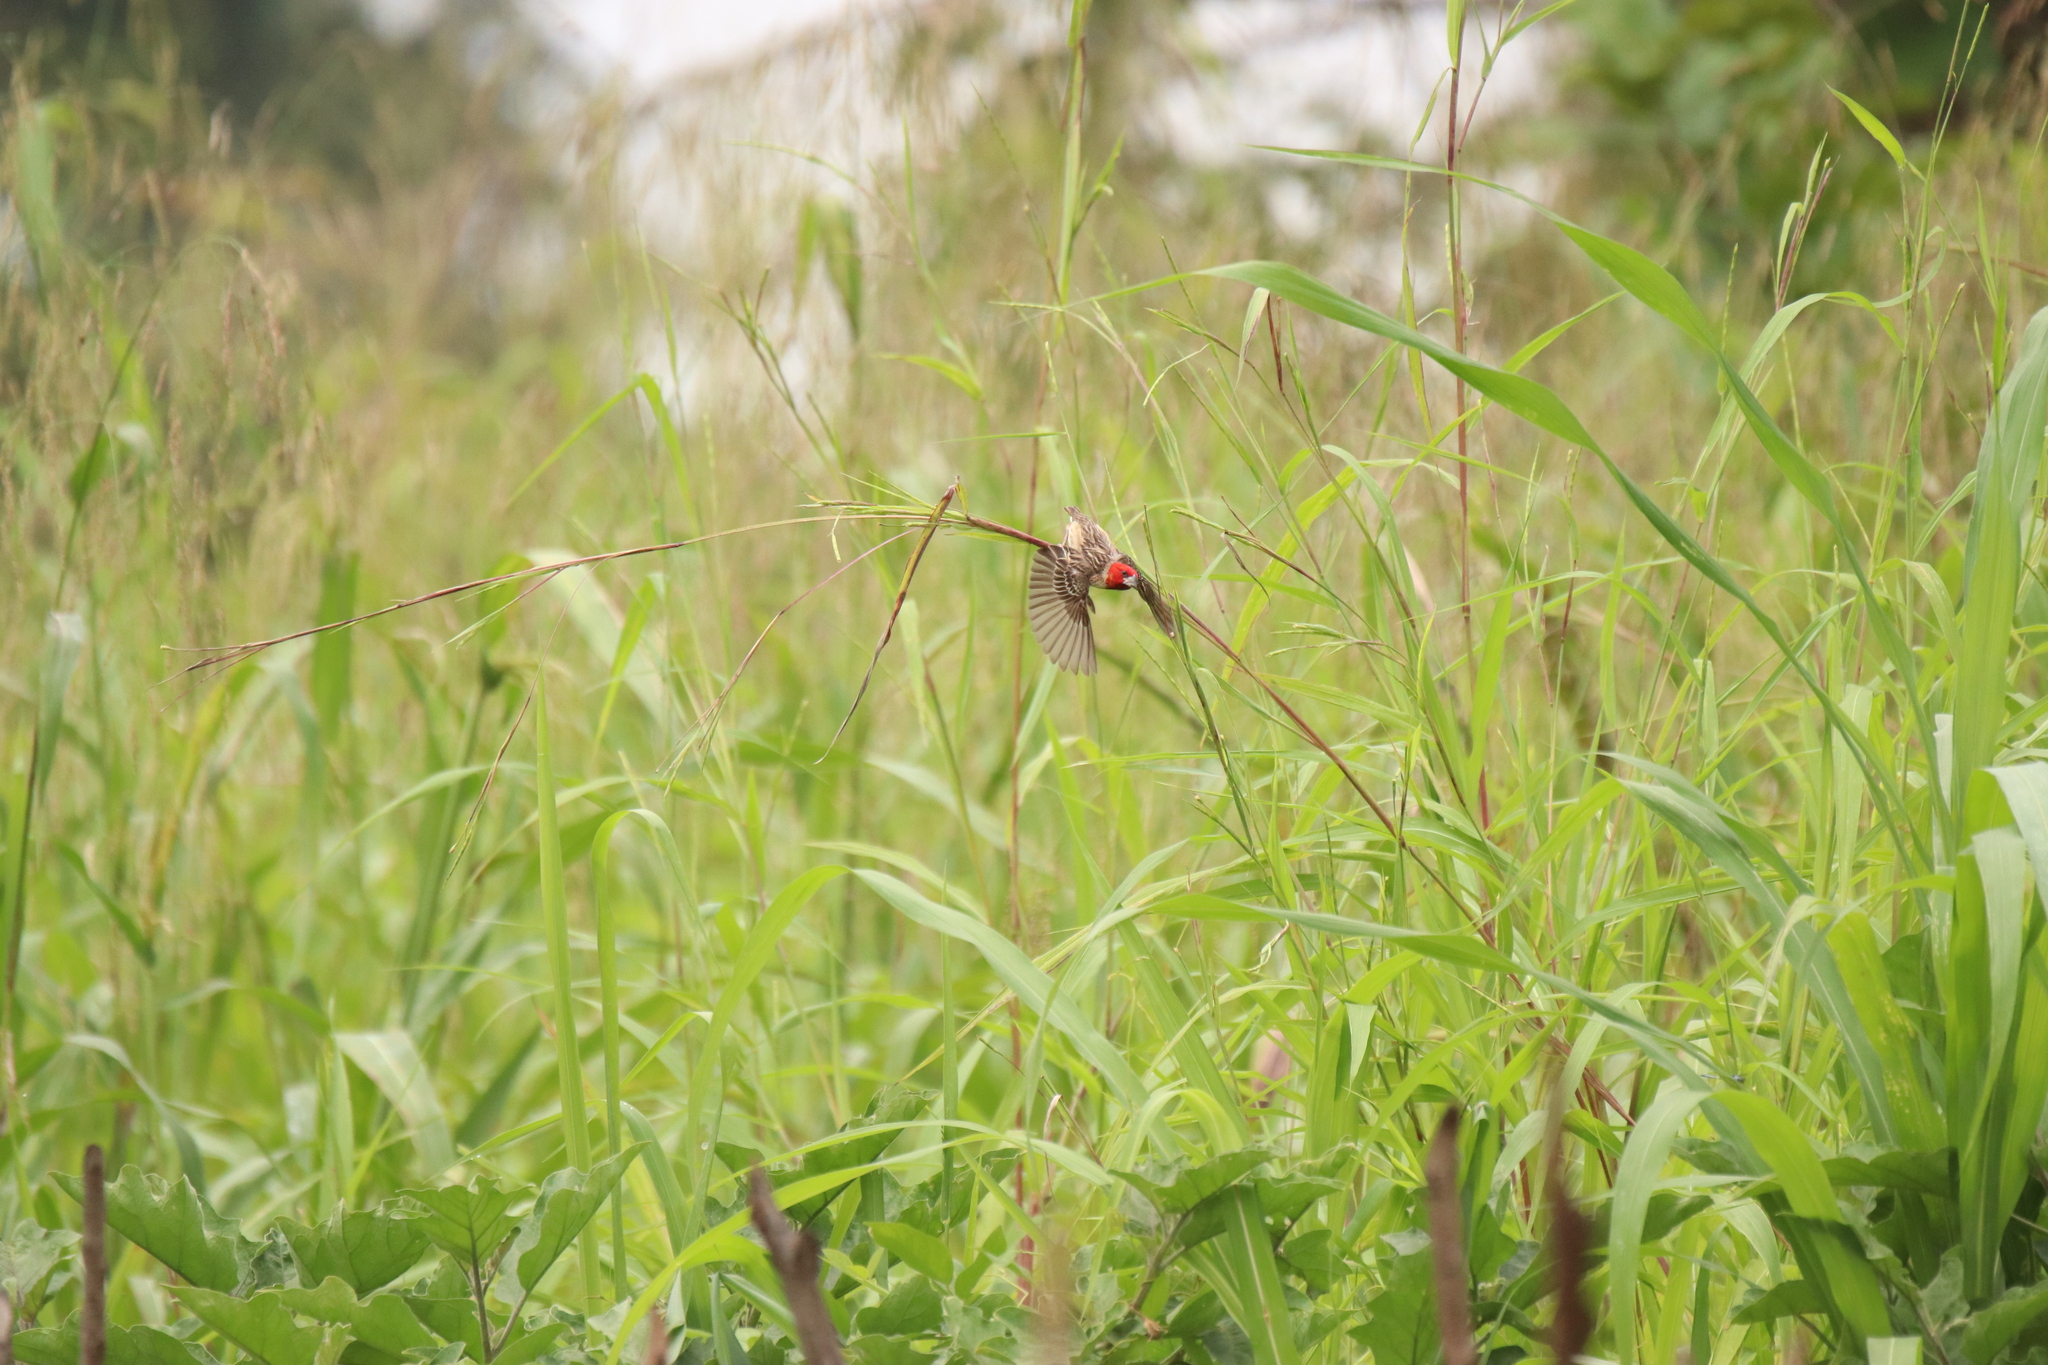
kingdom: Animalia
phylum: Chordata
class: Aves
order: Passeriformes
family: Ploceidae
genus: Quelea
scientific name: Quelea erythrops
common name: Red-headed quelea
